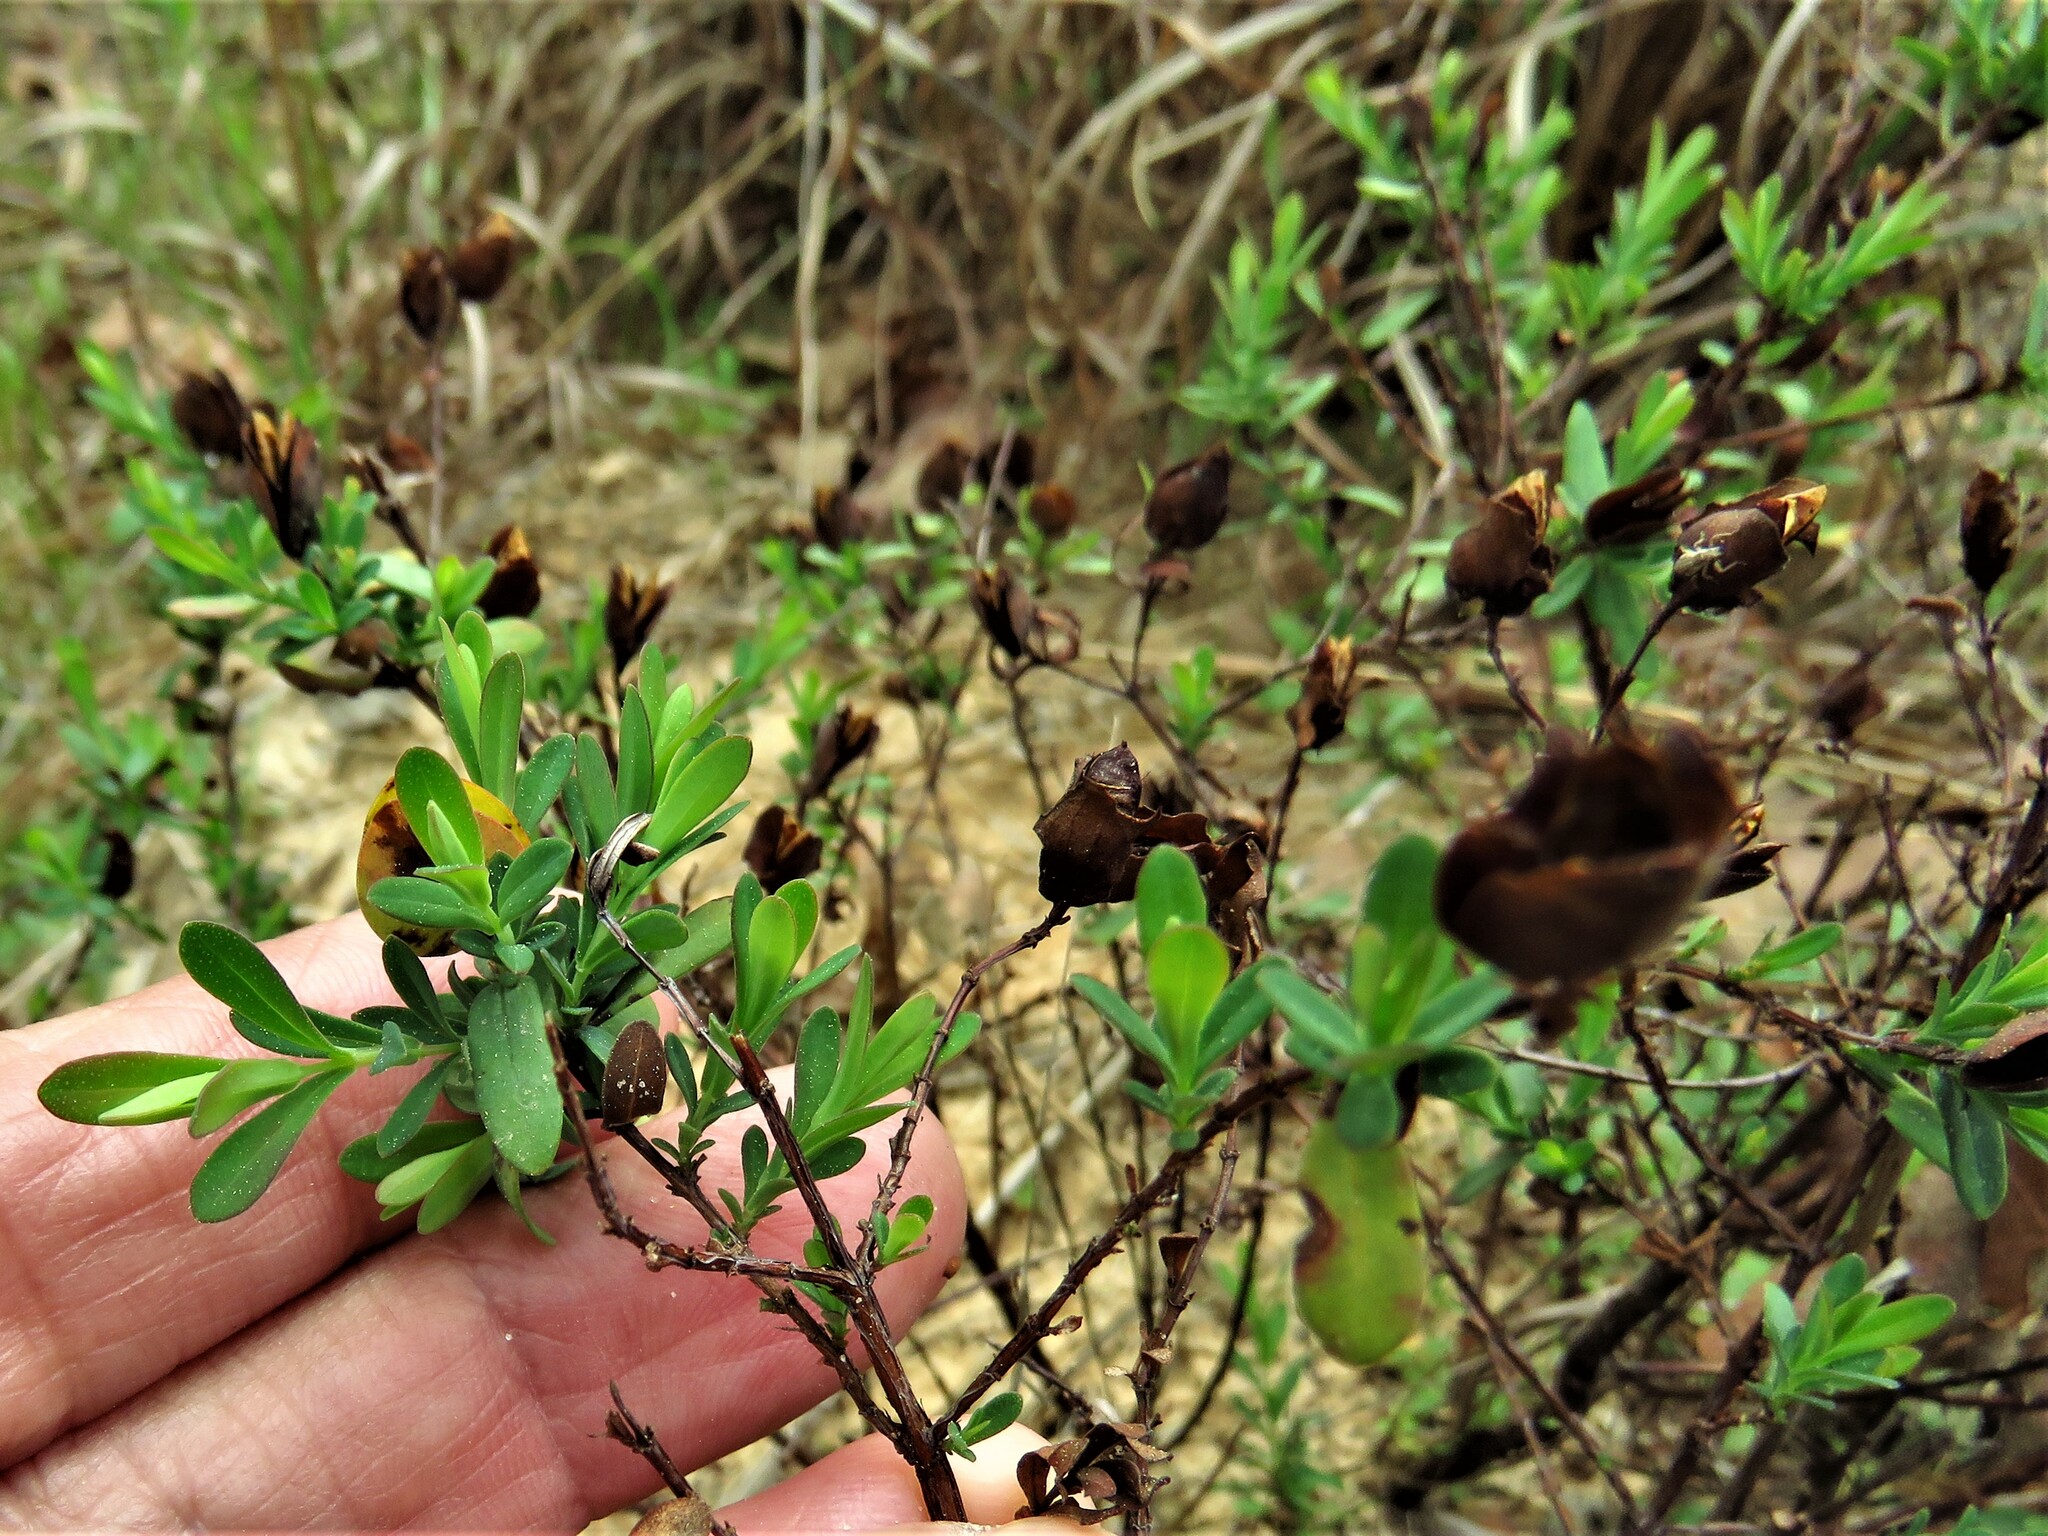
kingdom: Plantae
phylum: Tracheophyta
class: Magnoliopsida
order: Malpighiales
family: Hypericaceae
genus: Hypericum
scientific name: Hypericum hypericoides
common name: St. andrew's cross
